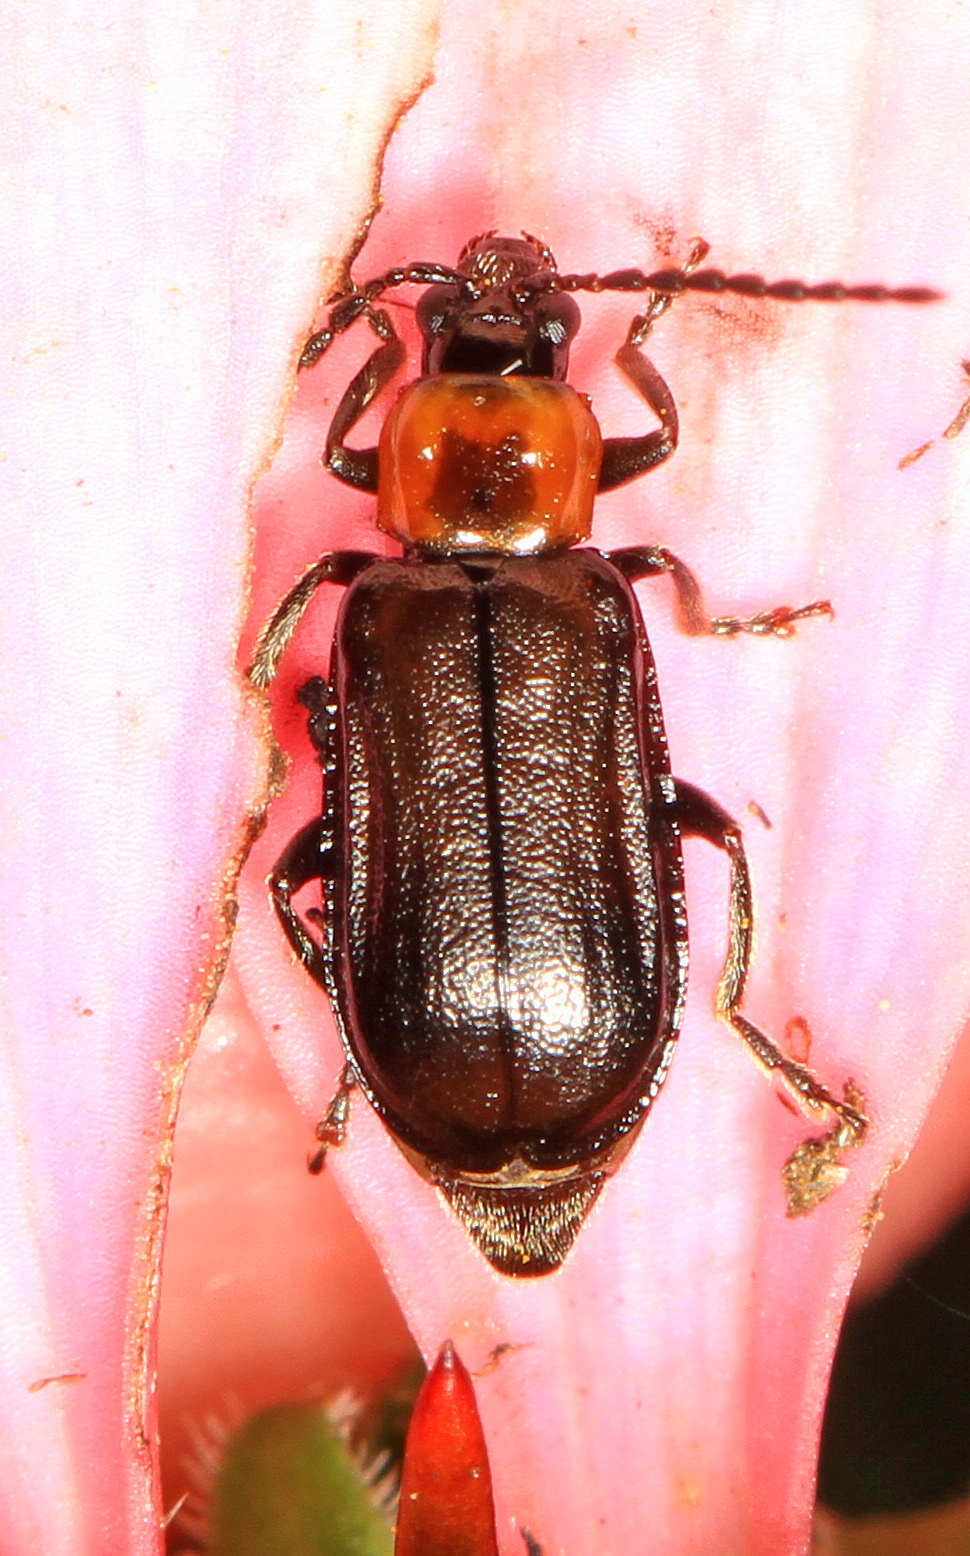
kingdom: Animalia
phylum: Arthropoda
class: Insecta
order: Coleoptera
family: Chrysomelidae
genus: Diabrotica
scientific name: Diabrotica cristata
